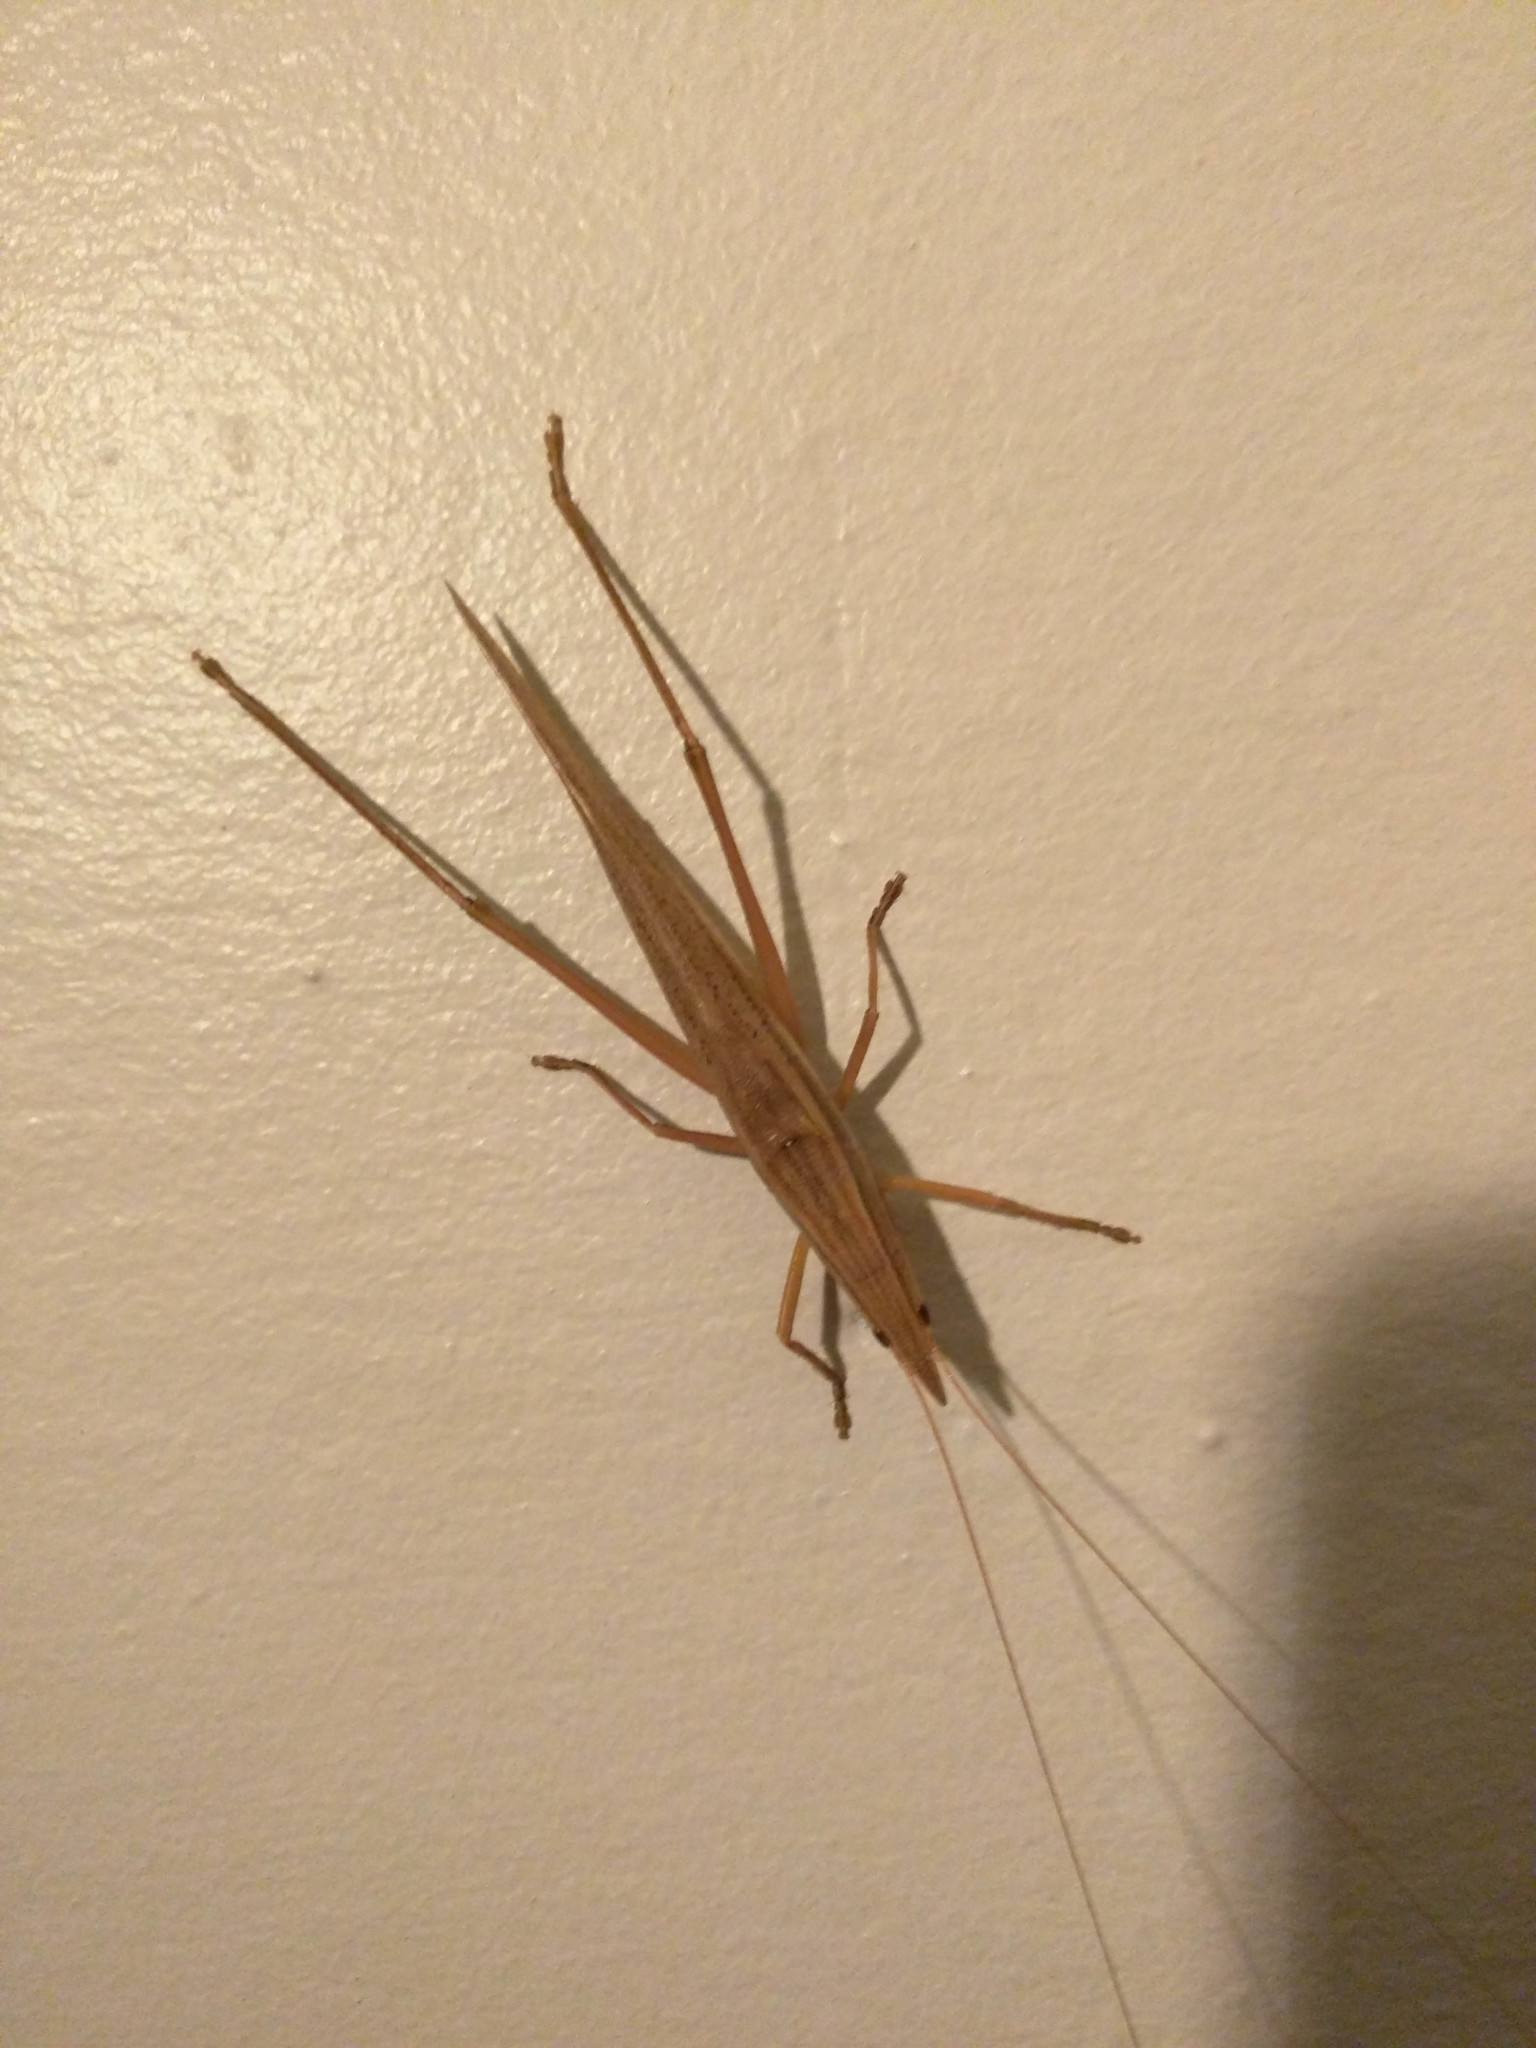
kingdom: Animalia
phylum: Arthropoda
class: Insecta
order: Orthoptera
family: Tettigoniidae
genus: Pseudorhynchus
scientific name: Pseudorhynchus lessonii
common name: Lesson's mimicking snout nose
